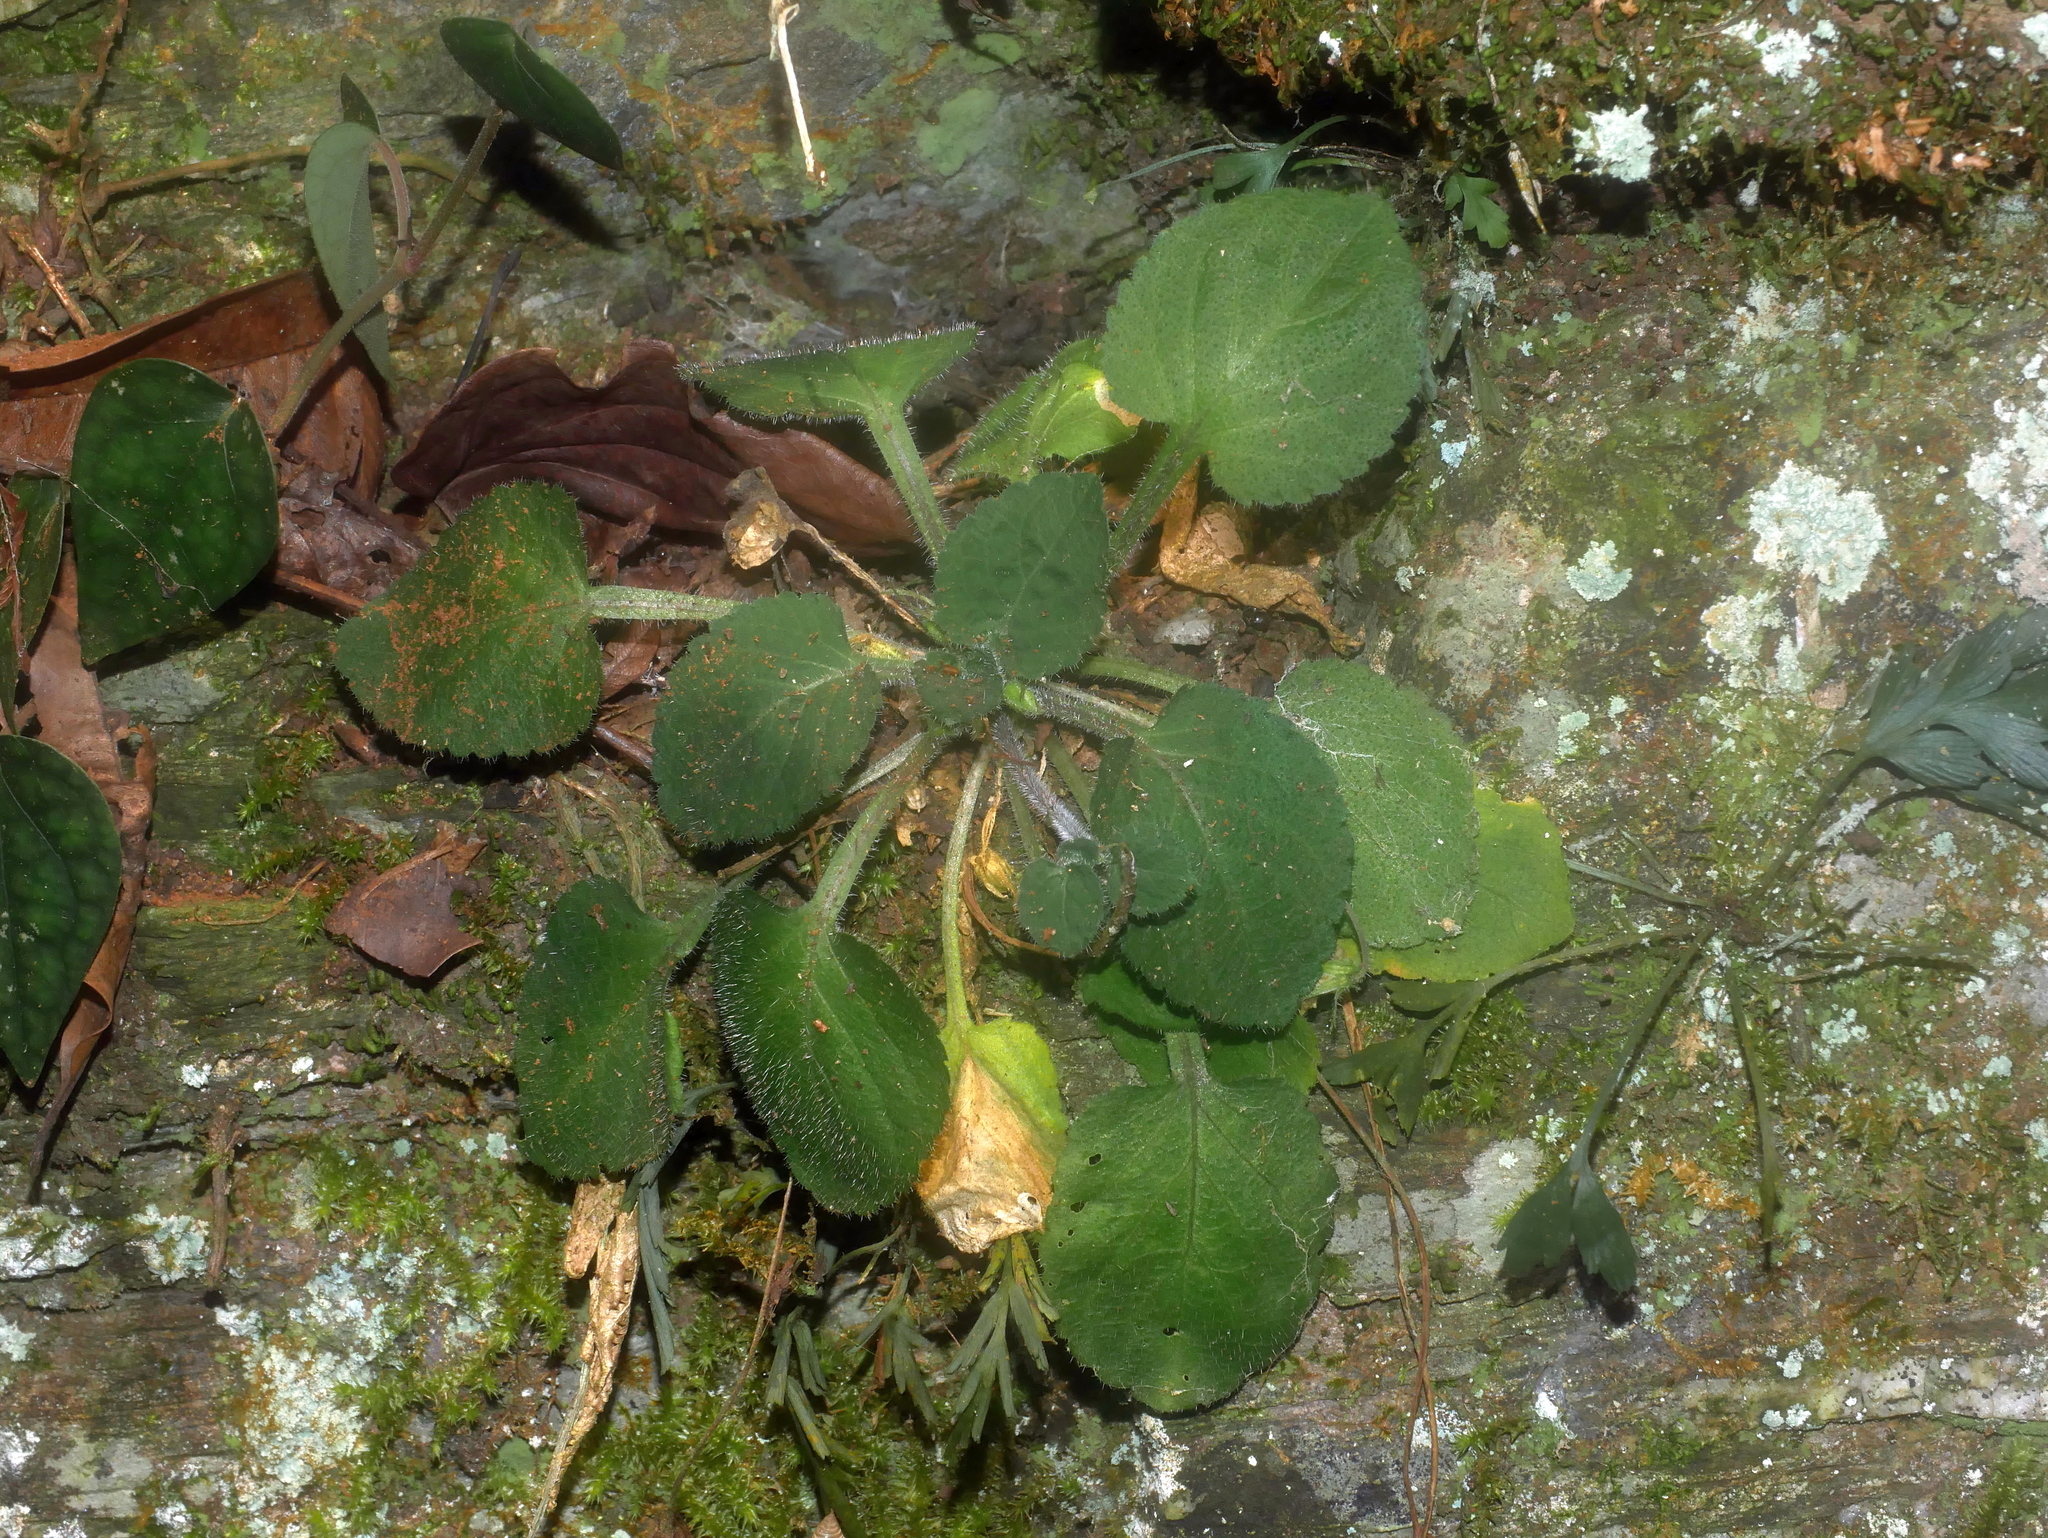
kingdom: Plantae
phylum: Tracheophyta
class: Magnoliopsida
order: Malpighiales
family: Violaceae
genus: Viola
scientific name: Viola diffusa
